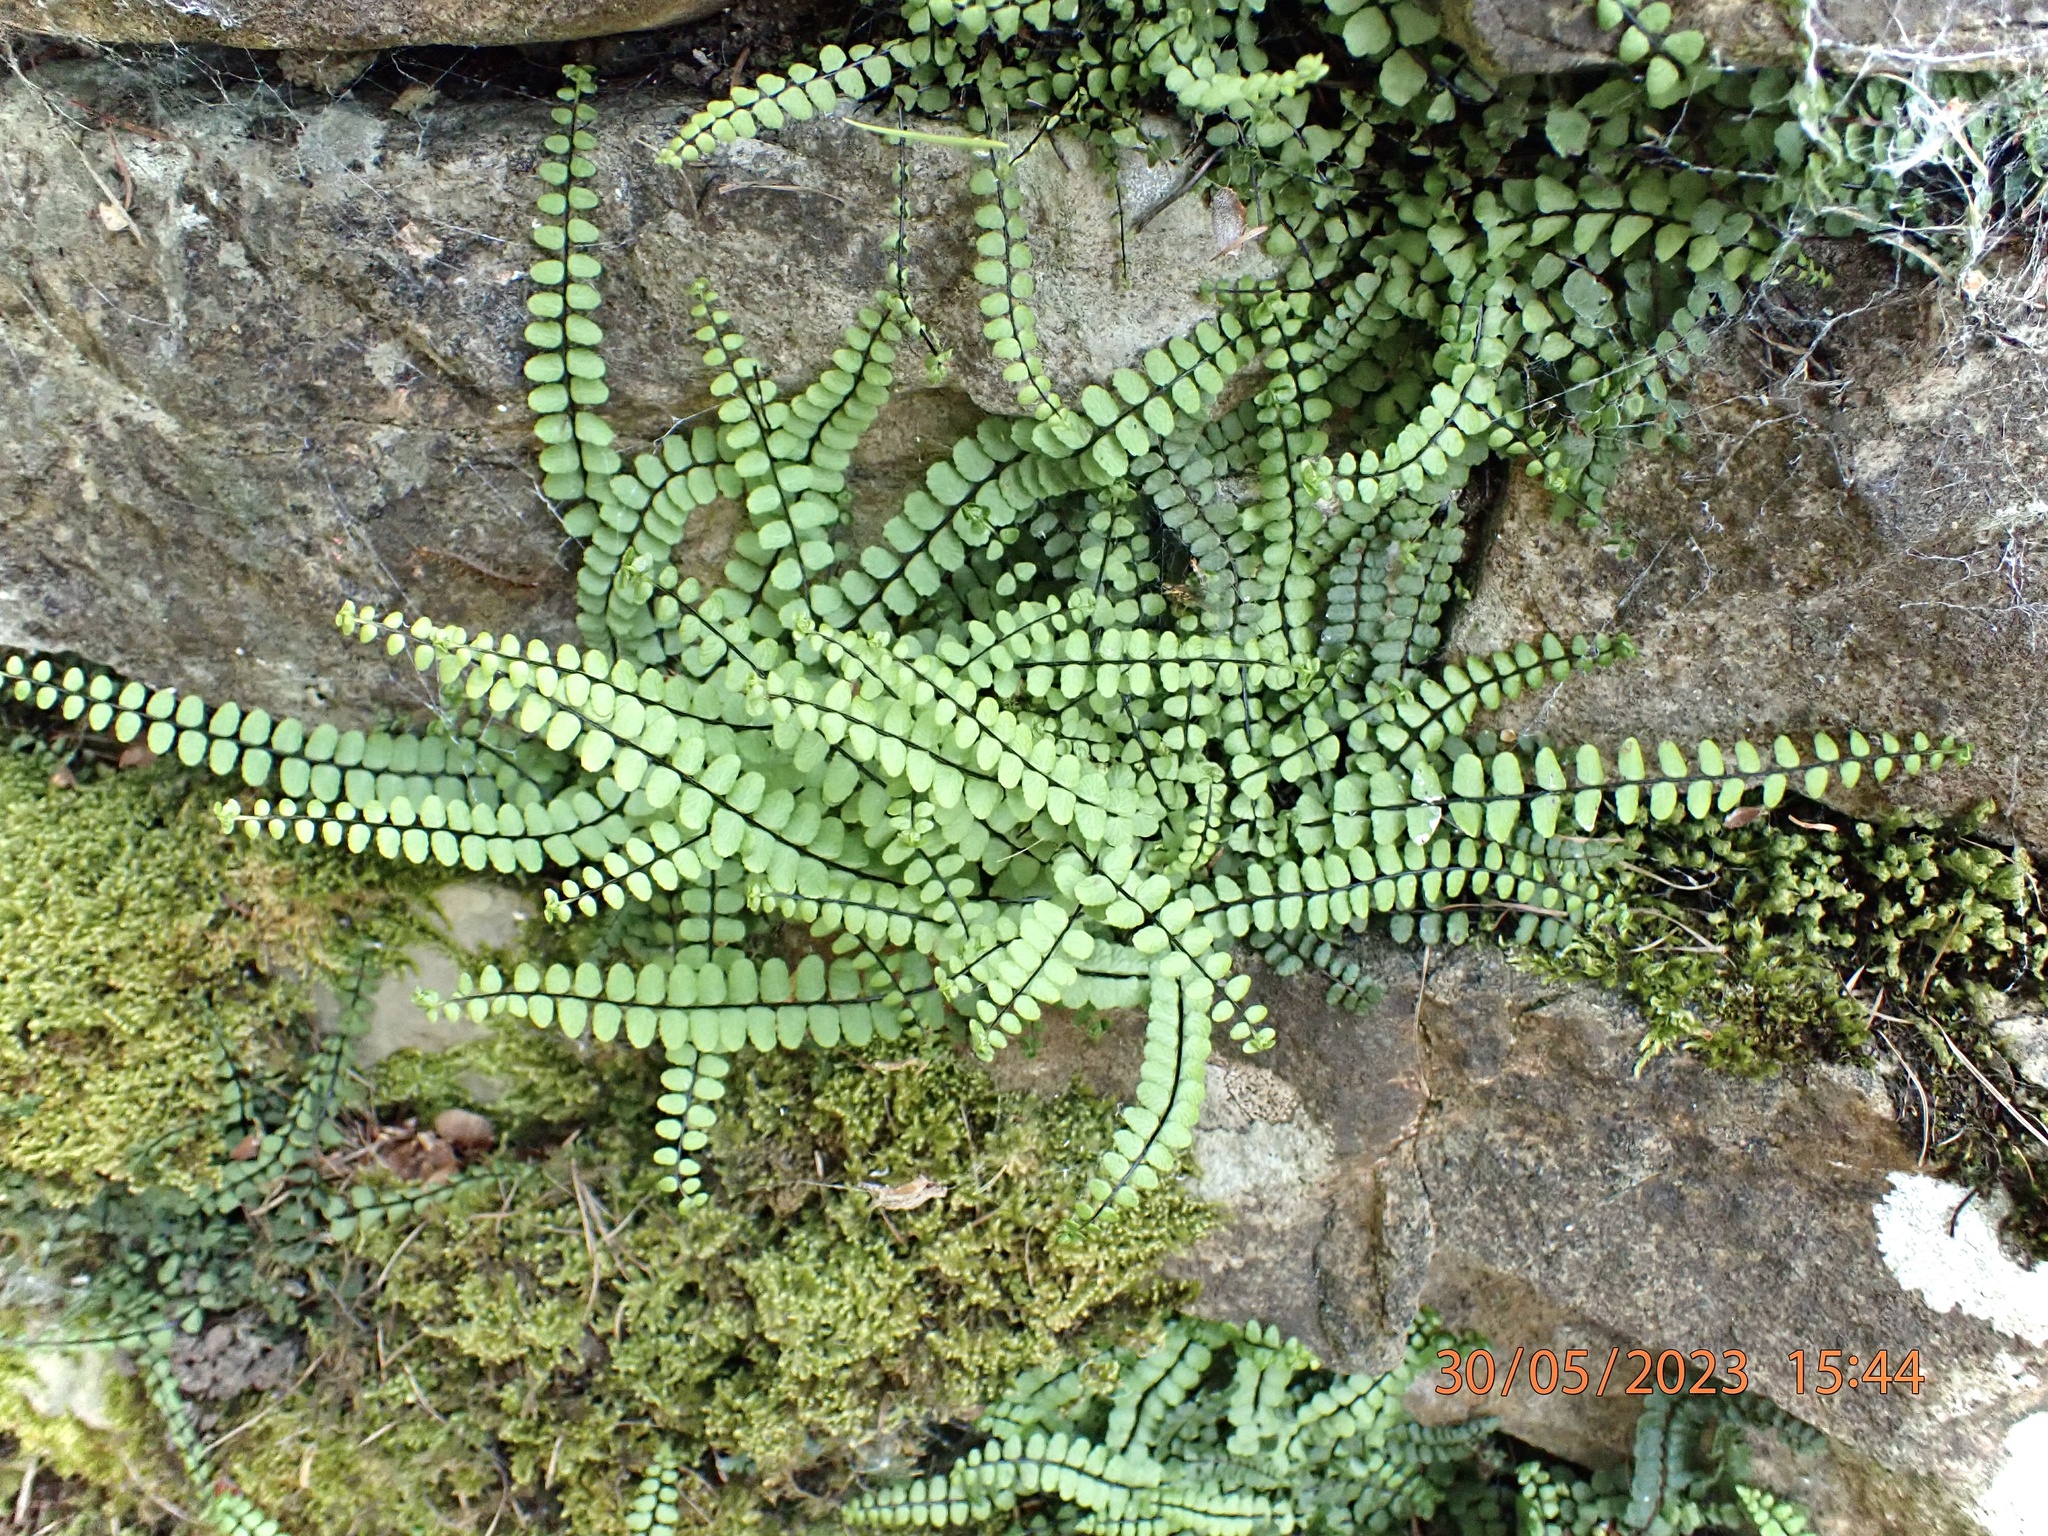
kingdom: Plantae
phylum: Tracheophyta
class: Polypodiopsida
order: Polypodiales
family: Aspleniaceae
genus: Asplenium
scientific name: Asplenium trichomanes
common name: Maidenhair spleenwort
